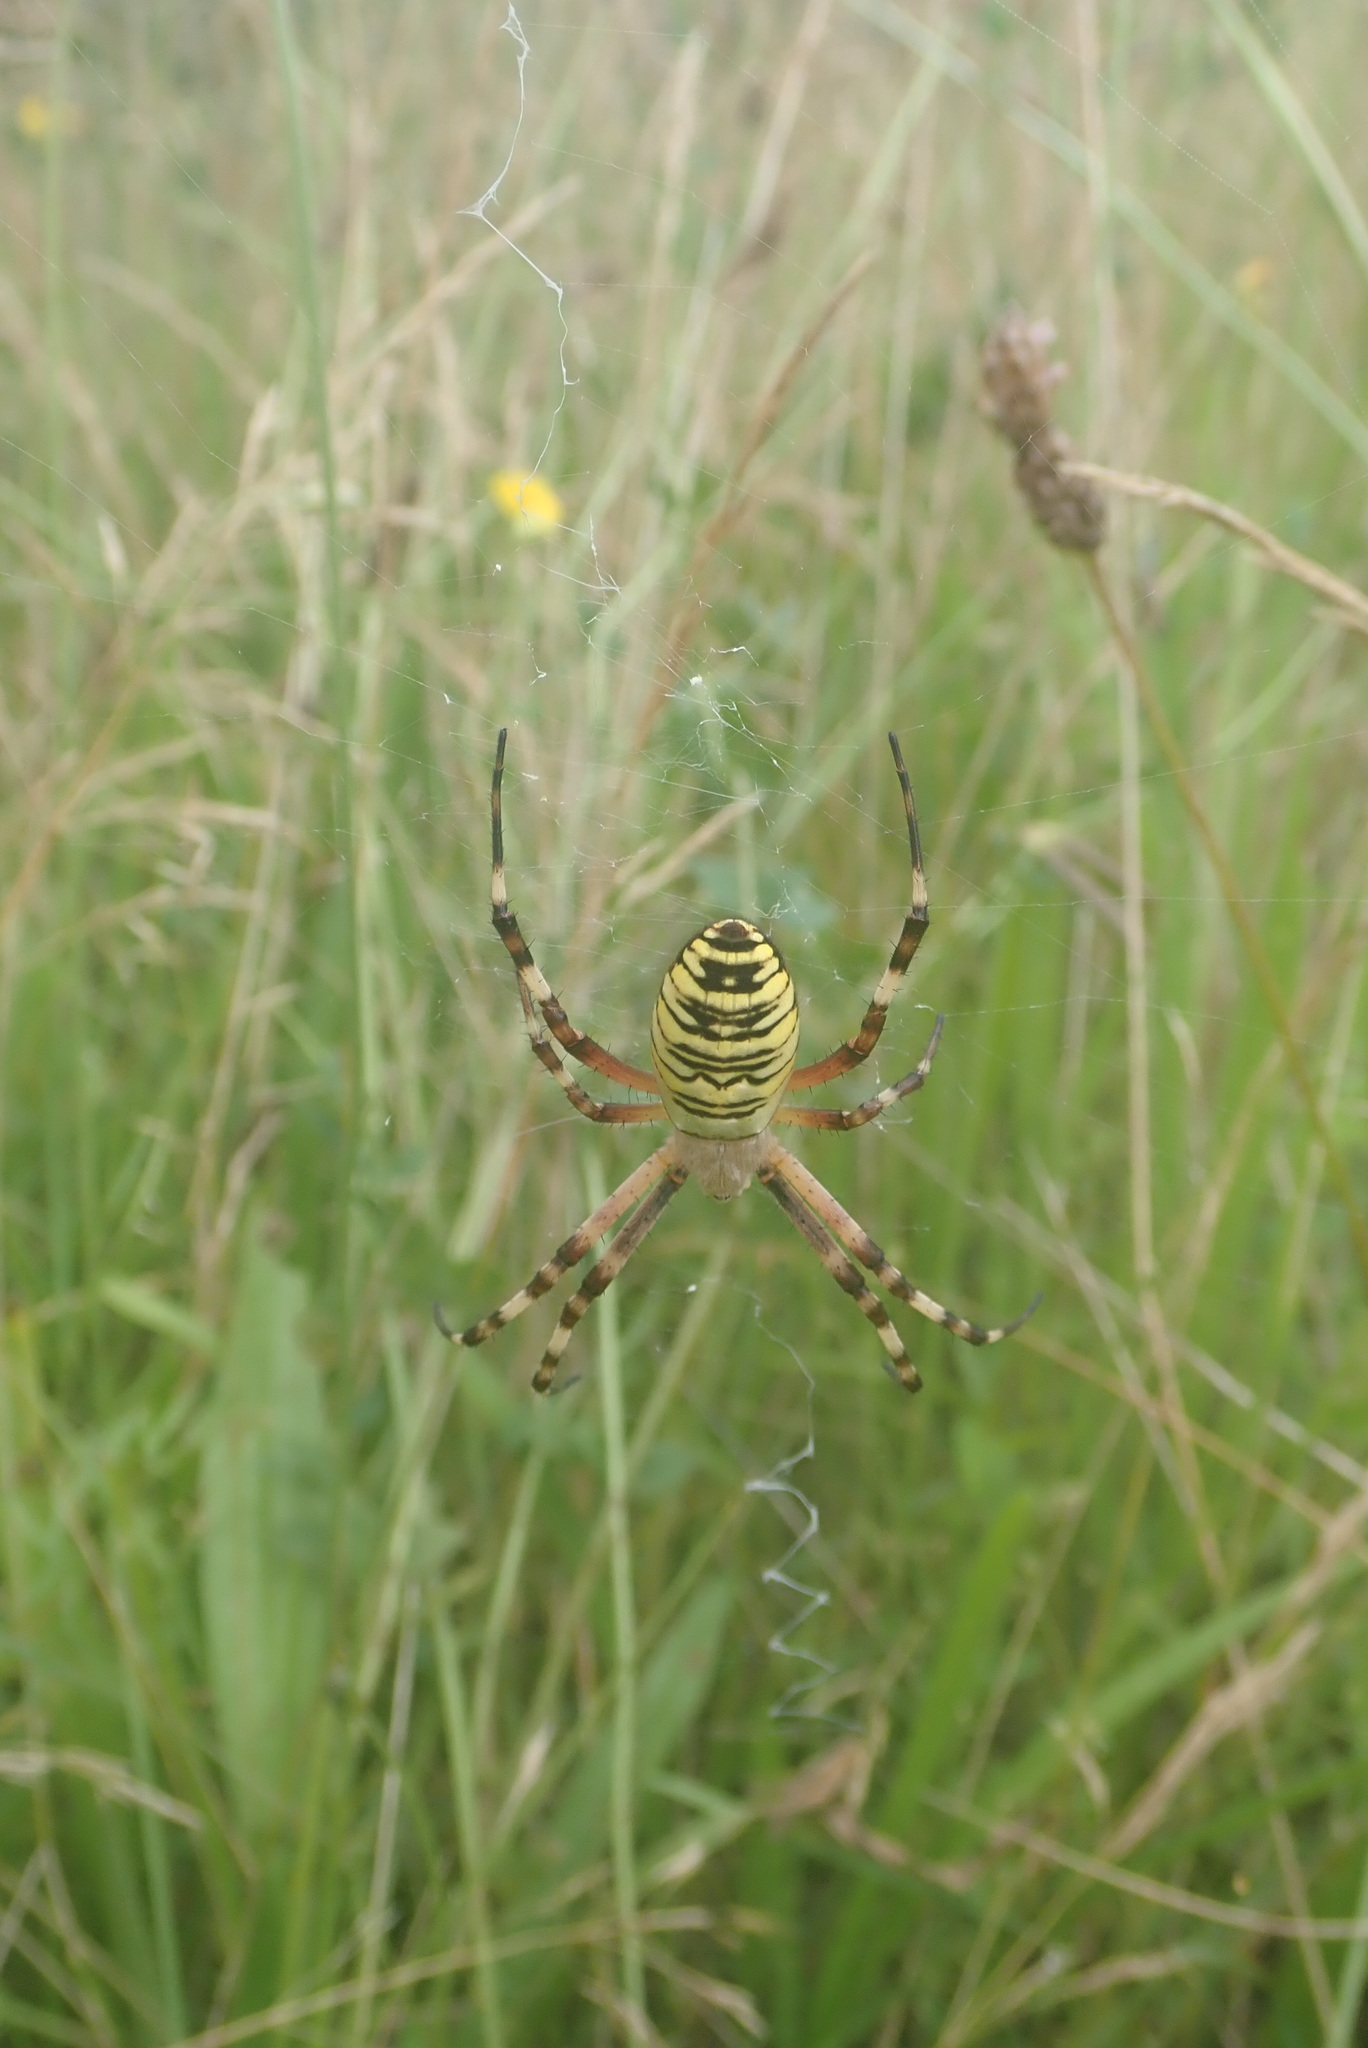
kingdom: Animalia
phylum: Arthropoda
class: Arachnida
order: Araneae
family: Araneidae
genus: Argiope
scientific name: Argiope bruennichi
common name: Wasp spider
